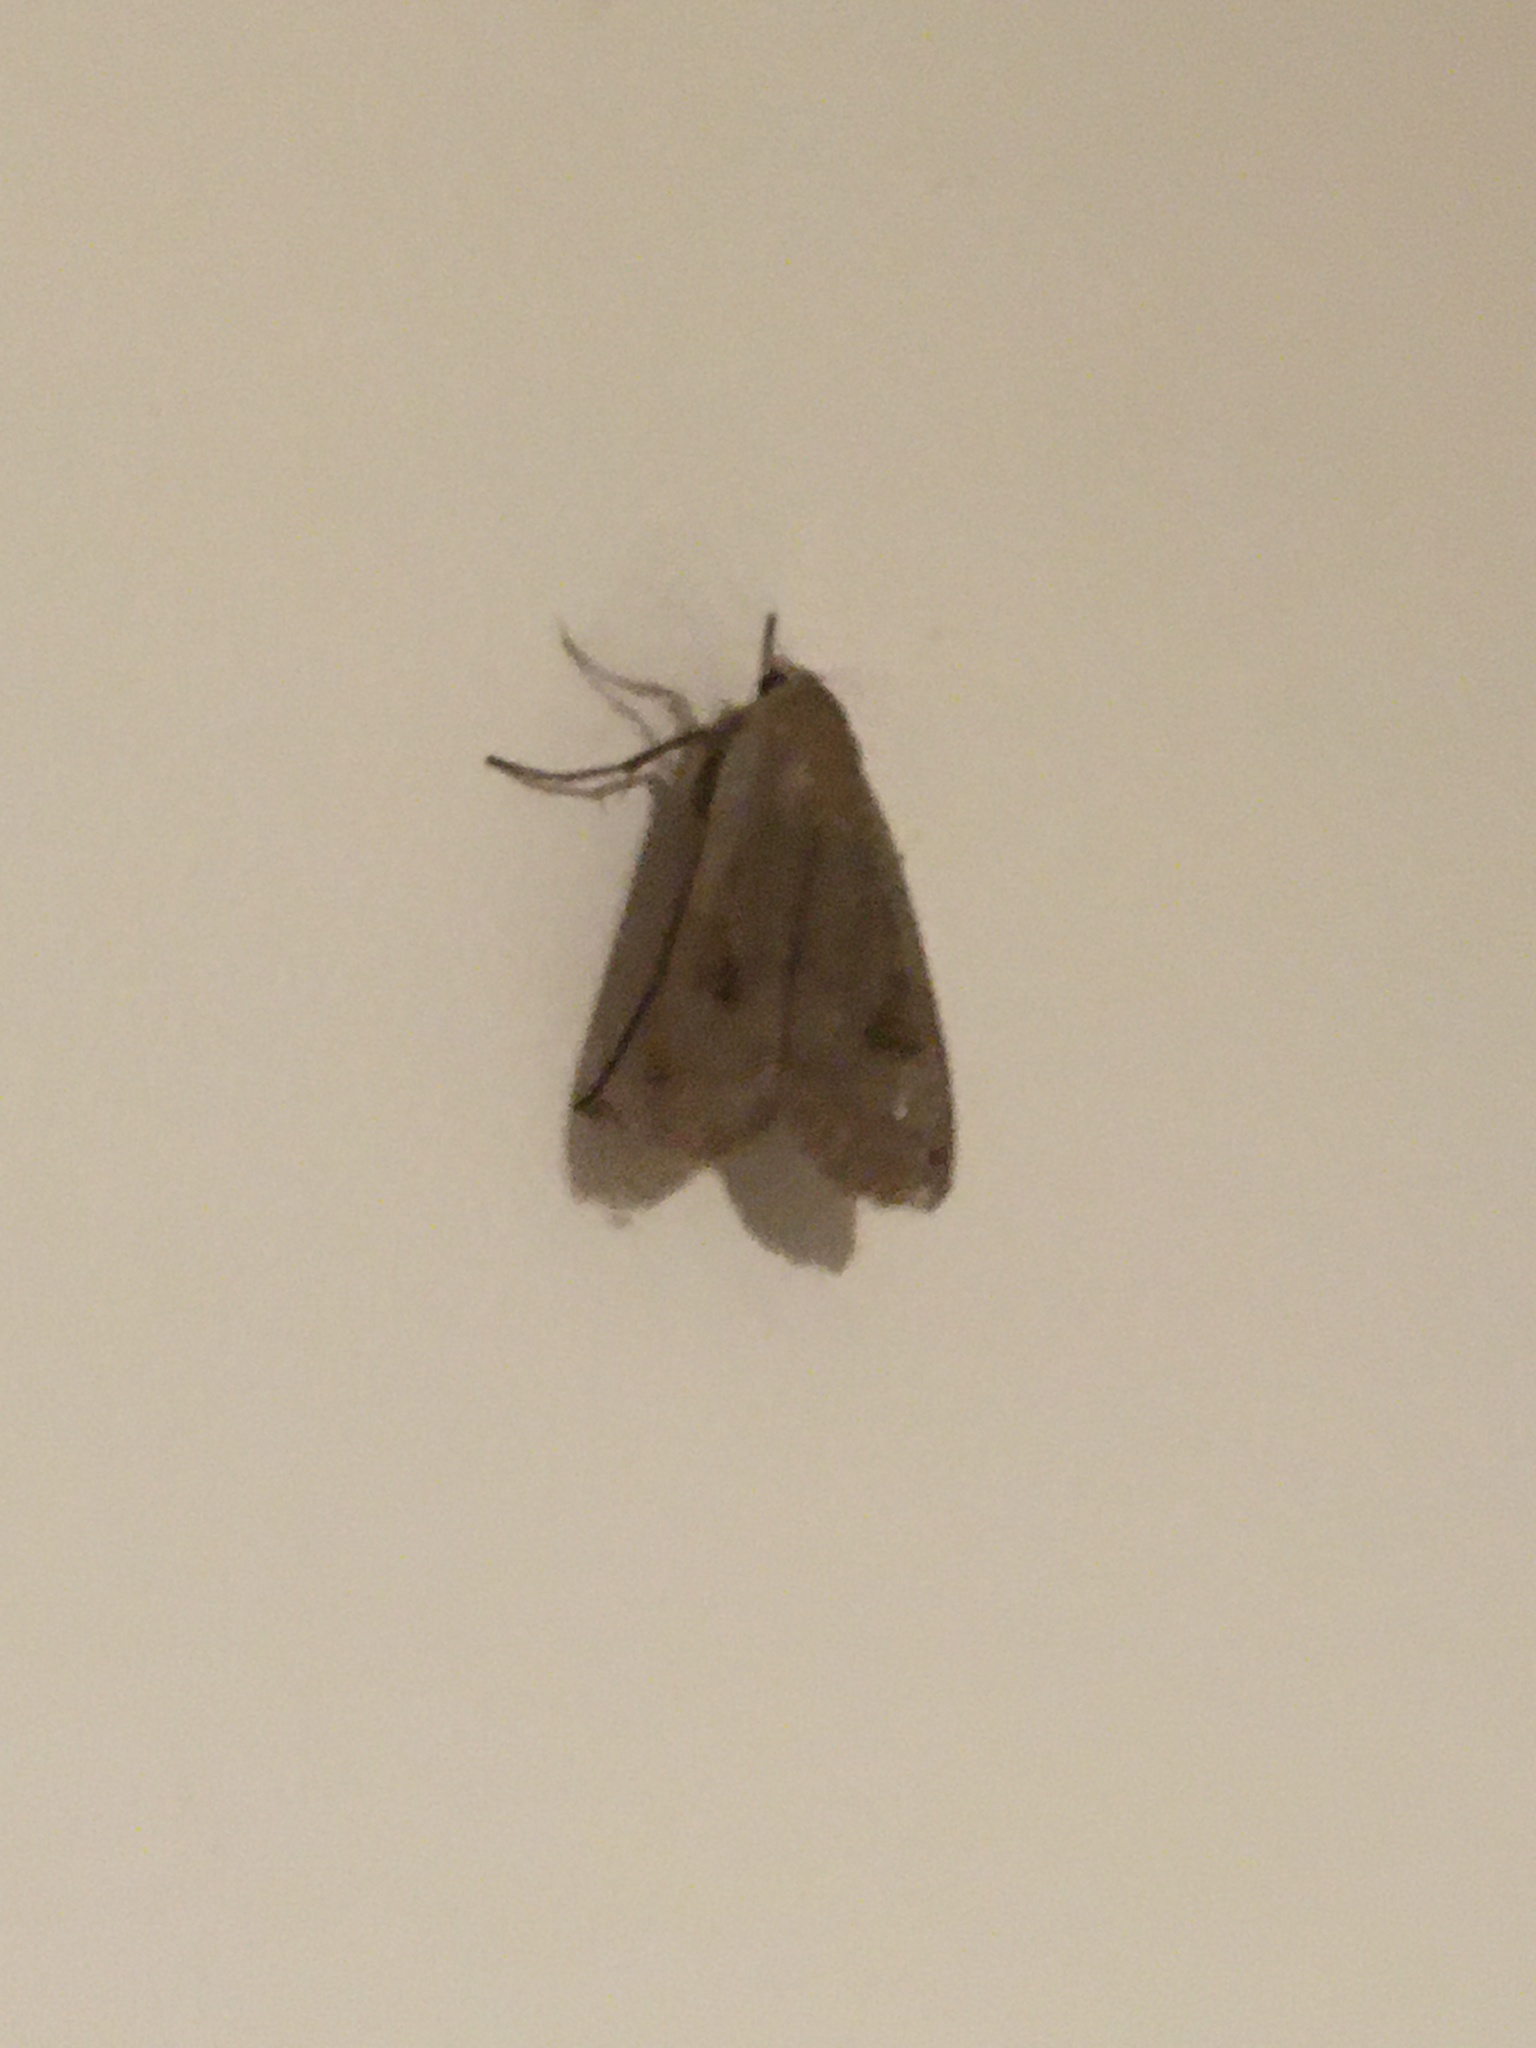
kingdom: Animalia
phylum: Arthropoda
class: Insecta
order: Lepidoptera
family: Noctuidae
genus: Noctua
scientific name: Noctua pronuba
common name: Large yellow underwing
